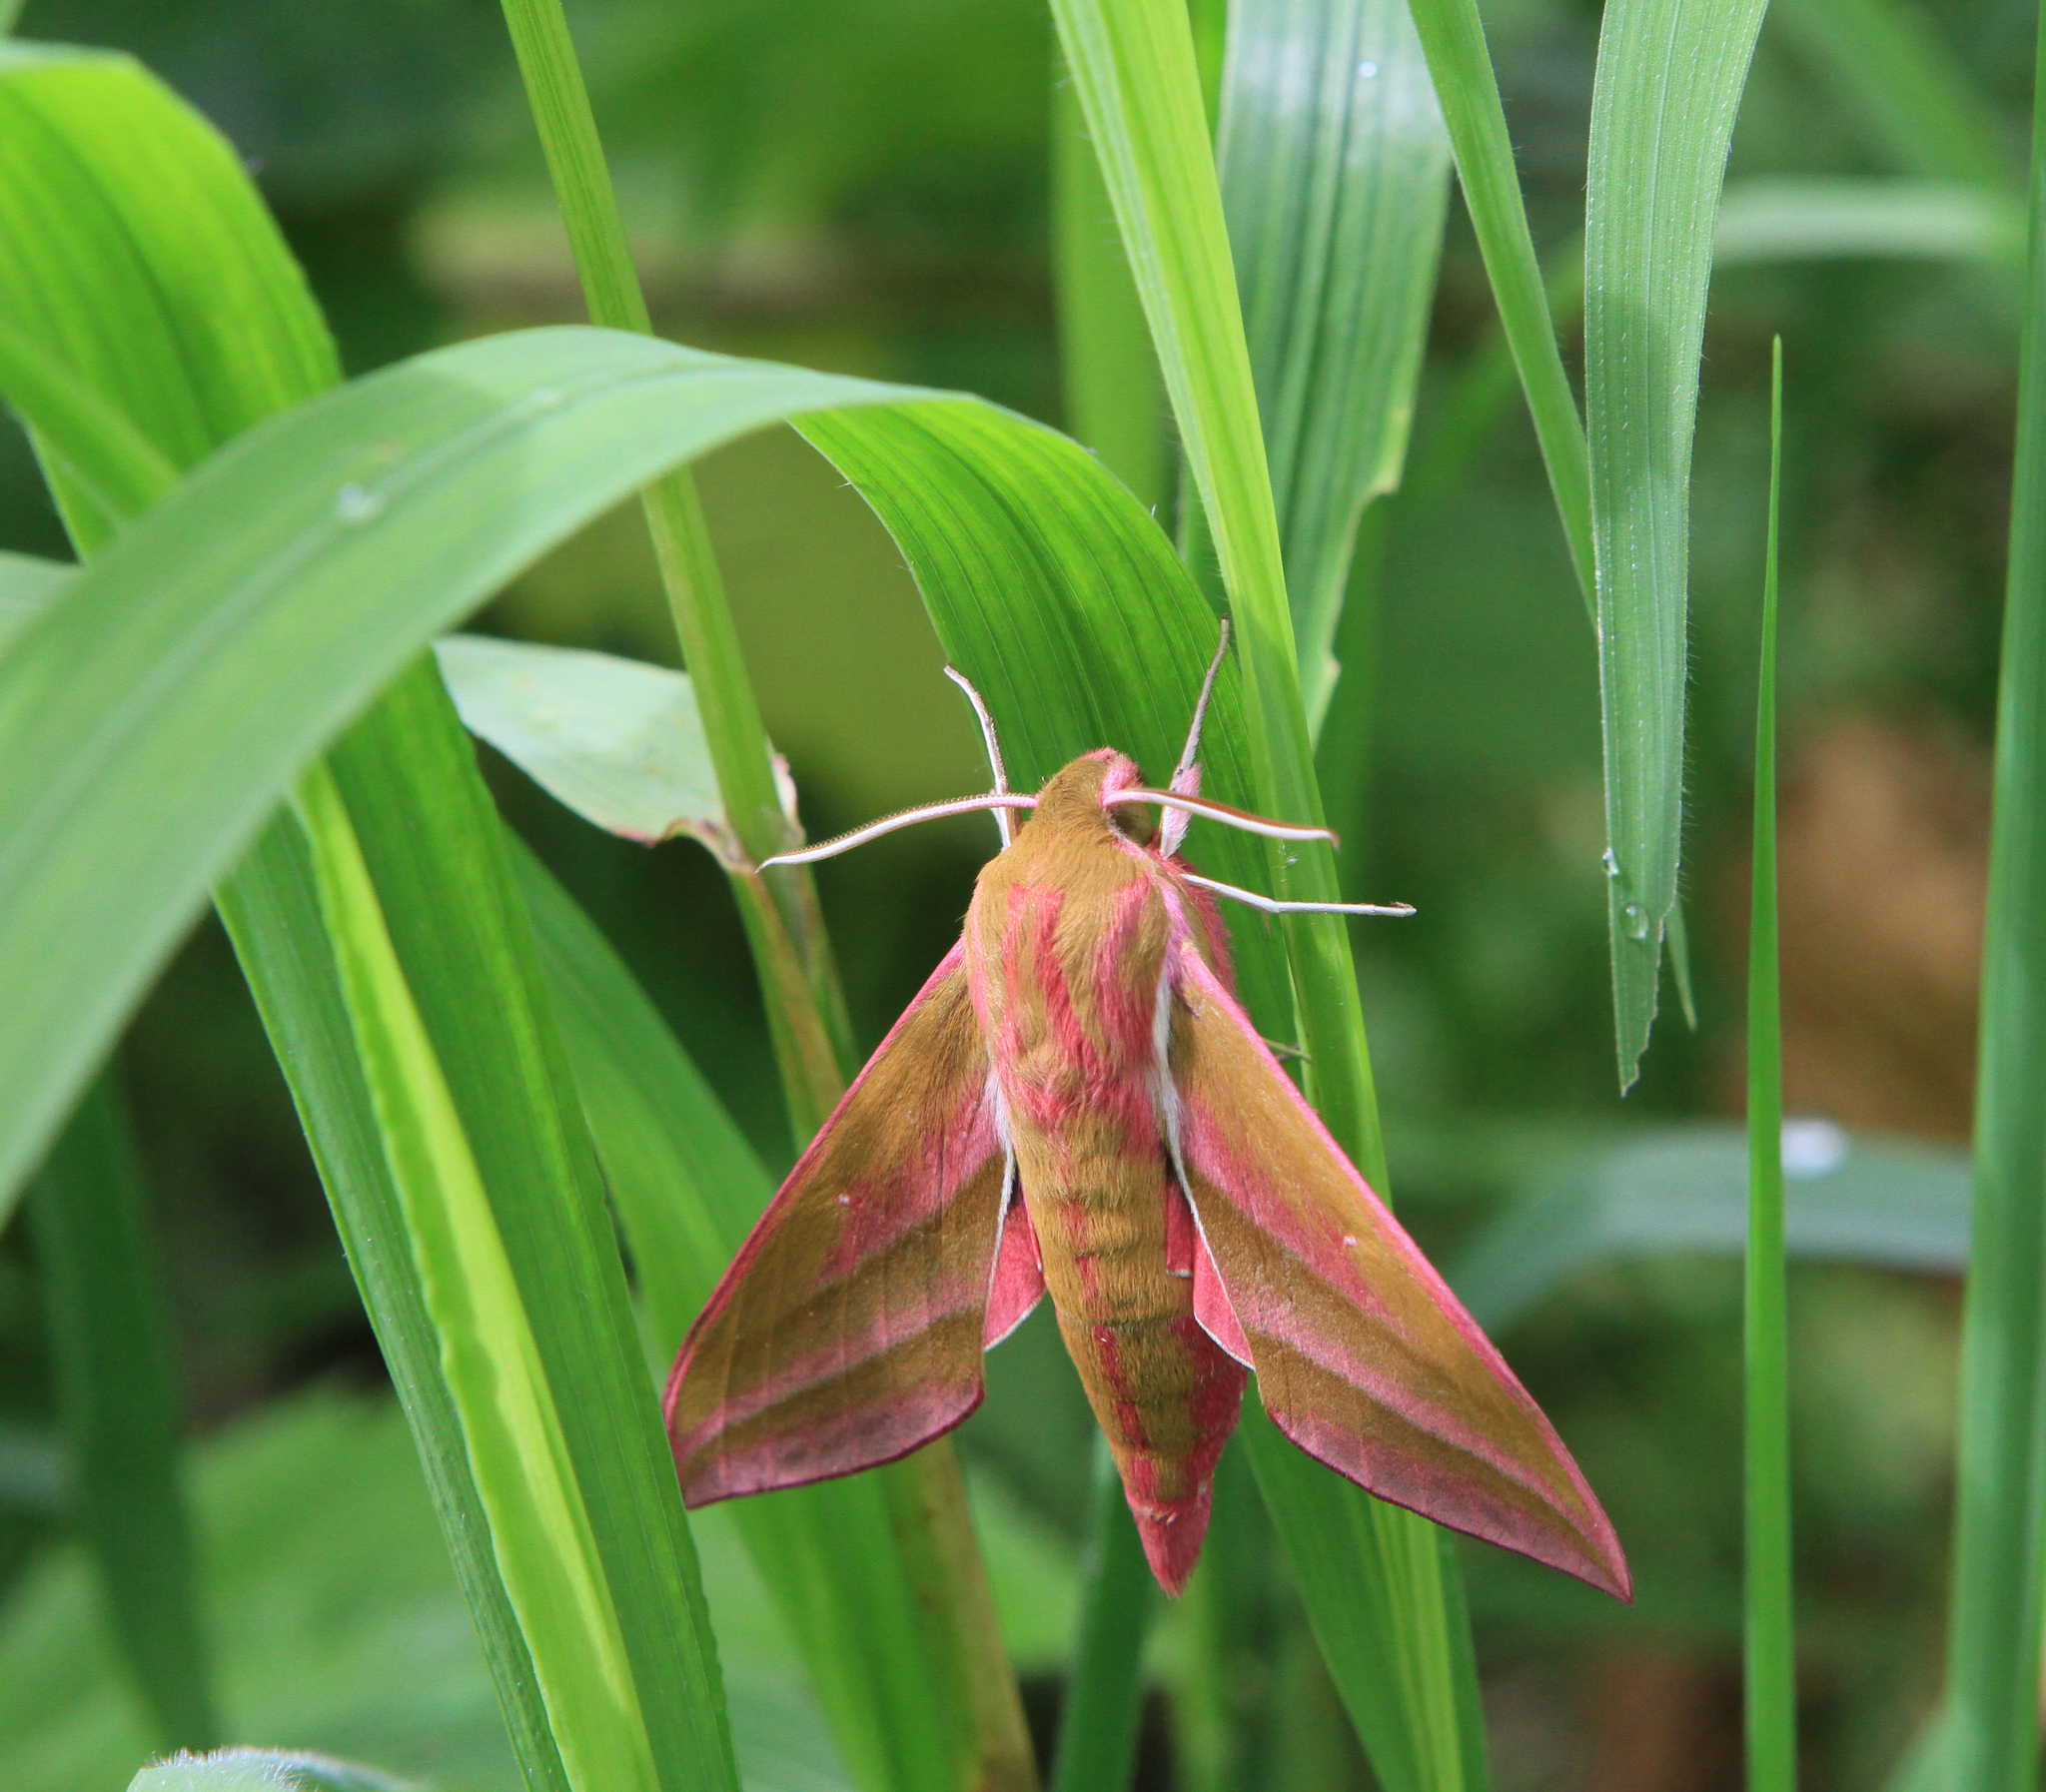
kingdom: Animalia
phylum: Arthropoda
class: Insecta
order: Lepidoptera
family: Sphingidae
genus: Deilephila
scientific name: Deilephila elpenor
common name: Elephant hawk-moth
